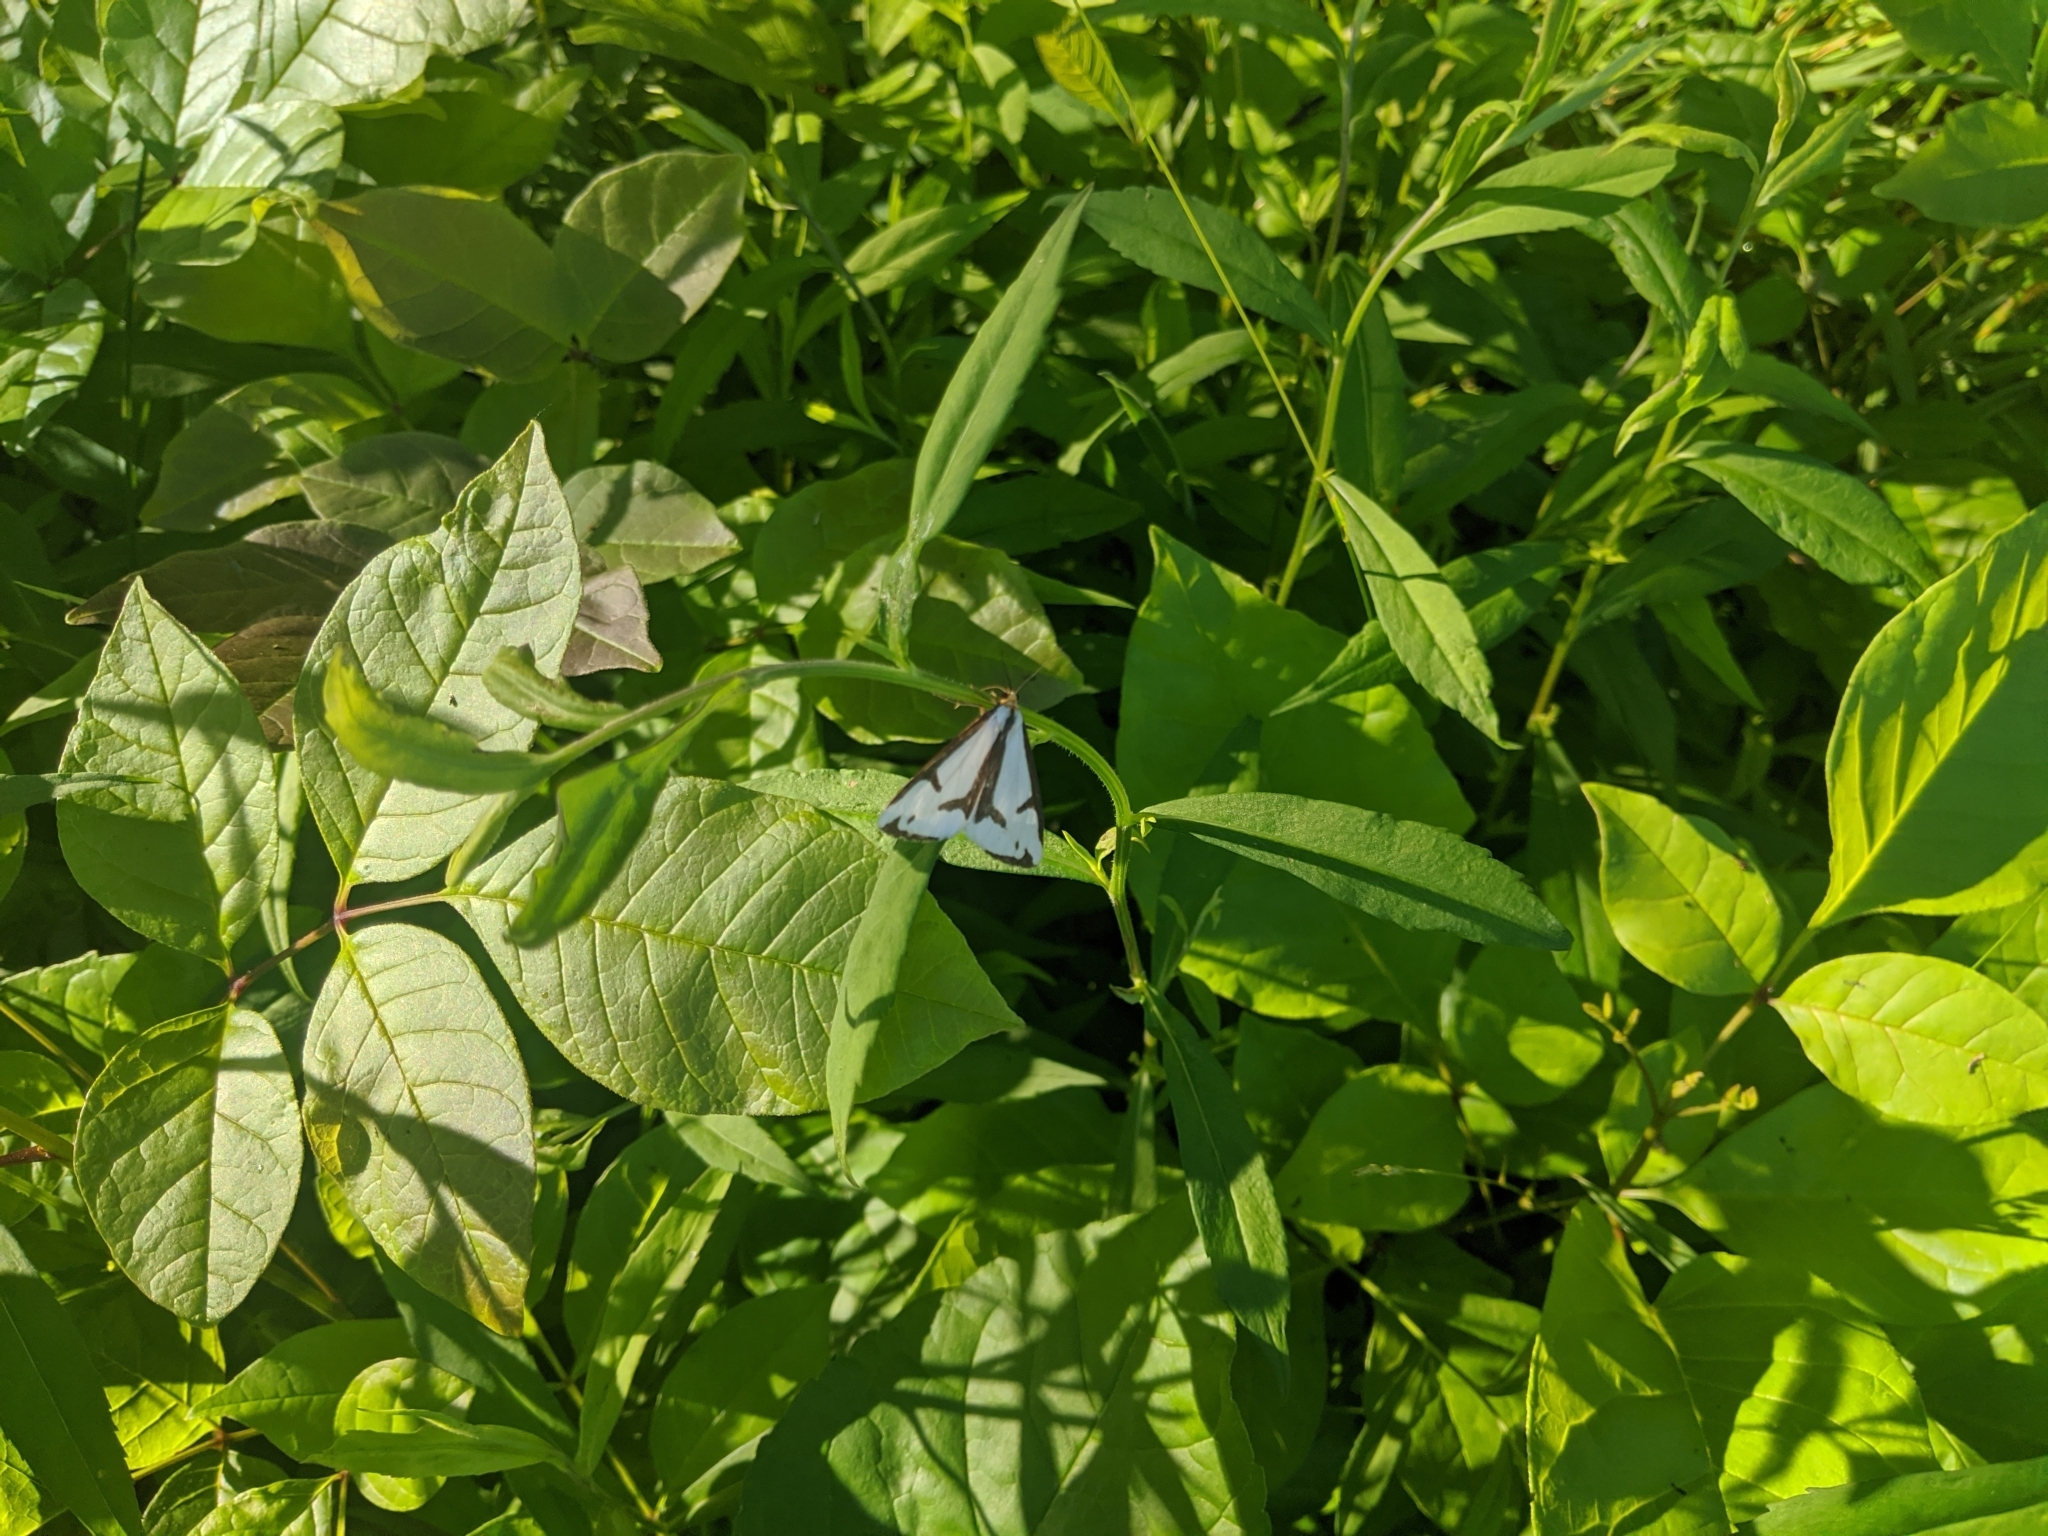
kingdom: Animalia
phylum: Arthropoda
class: Insecta
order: Lepidoptera
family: Erebidae
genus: Haploa
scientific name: Haploa lecontei
